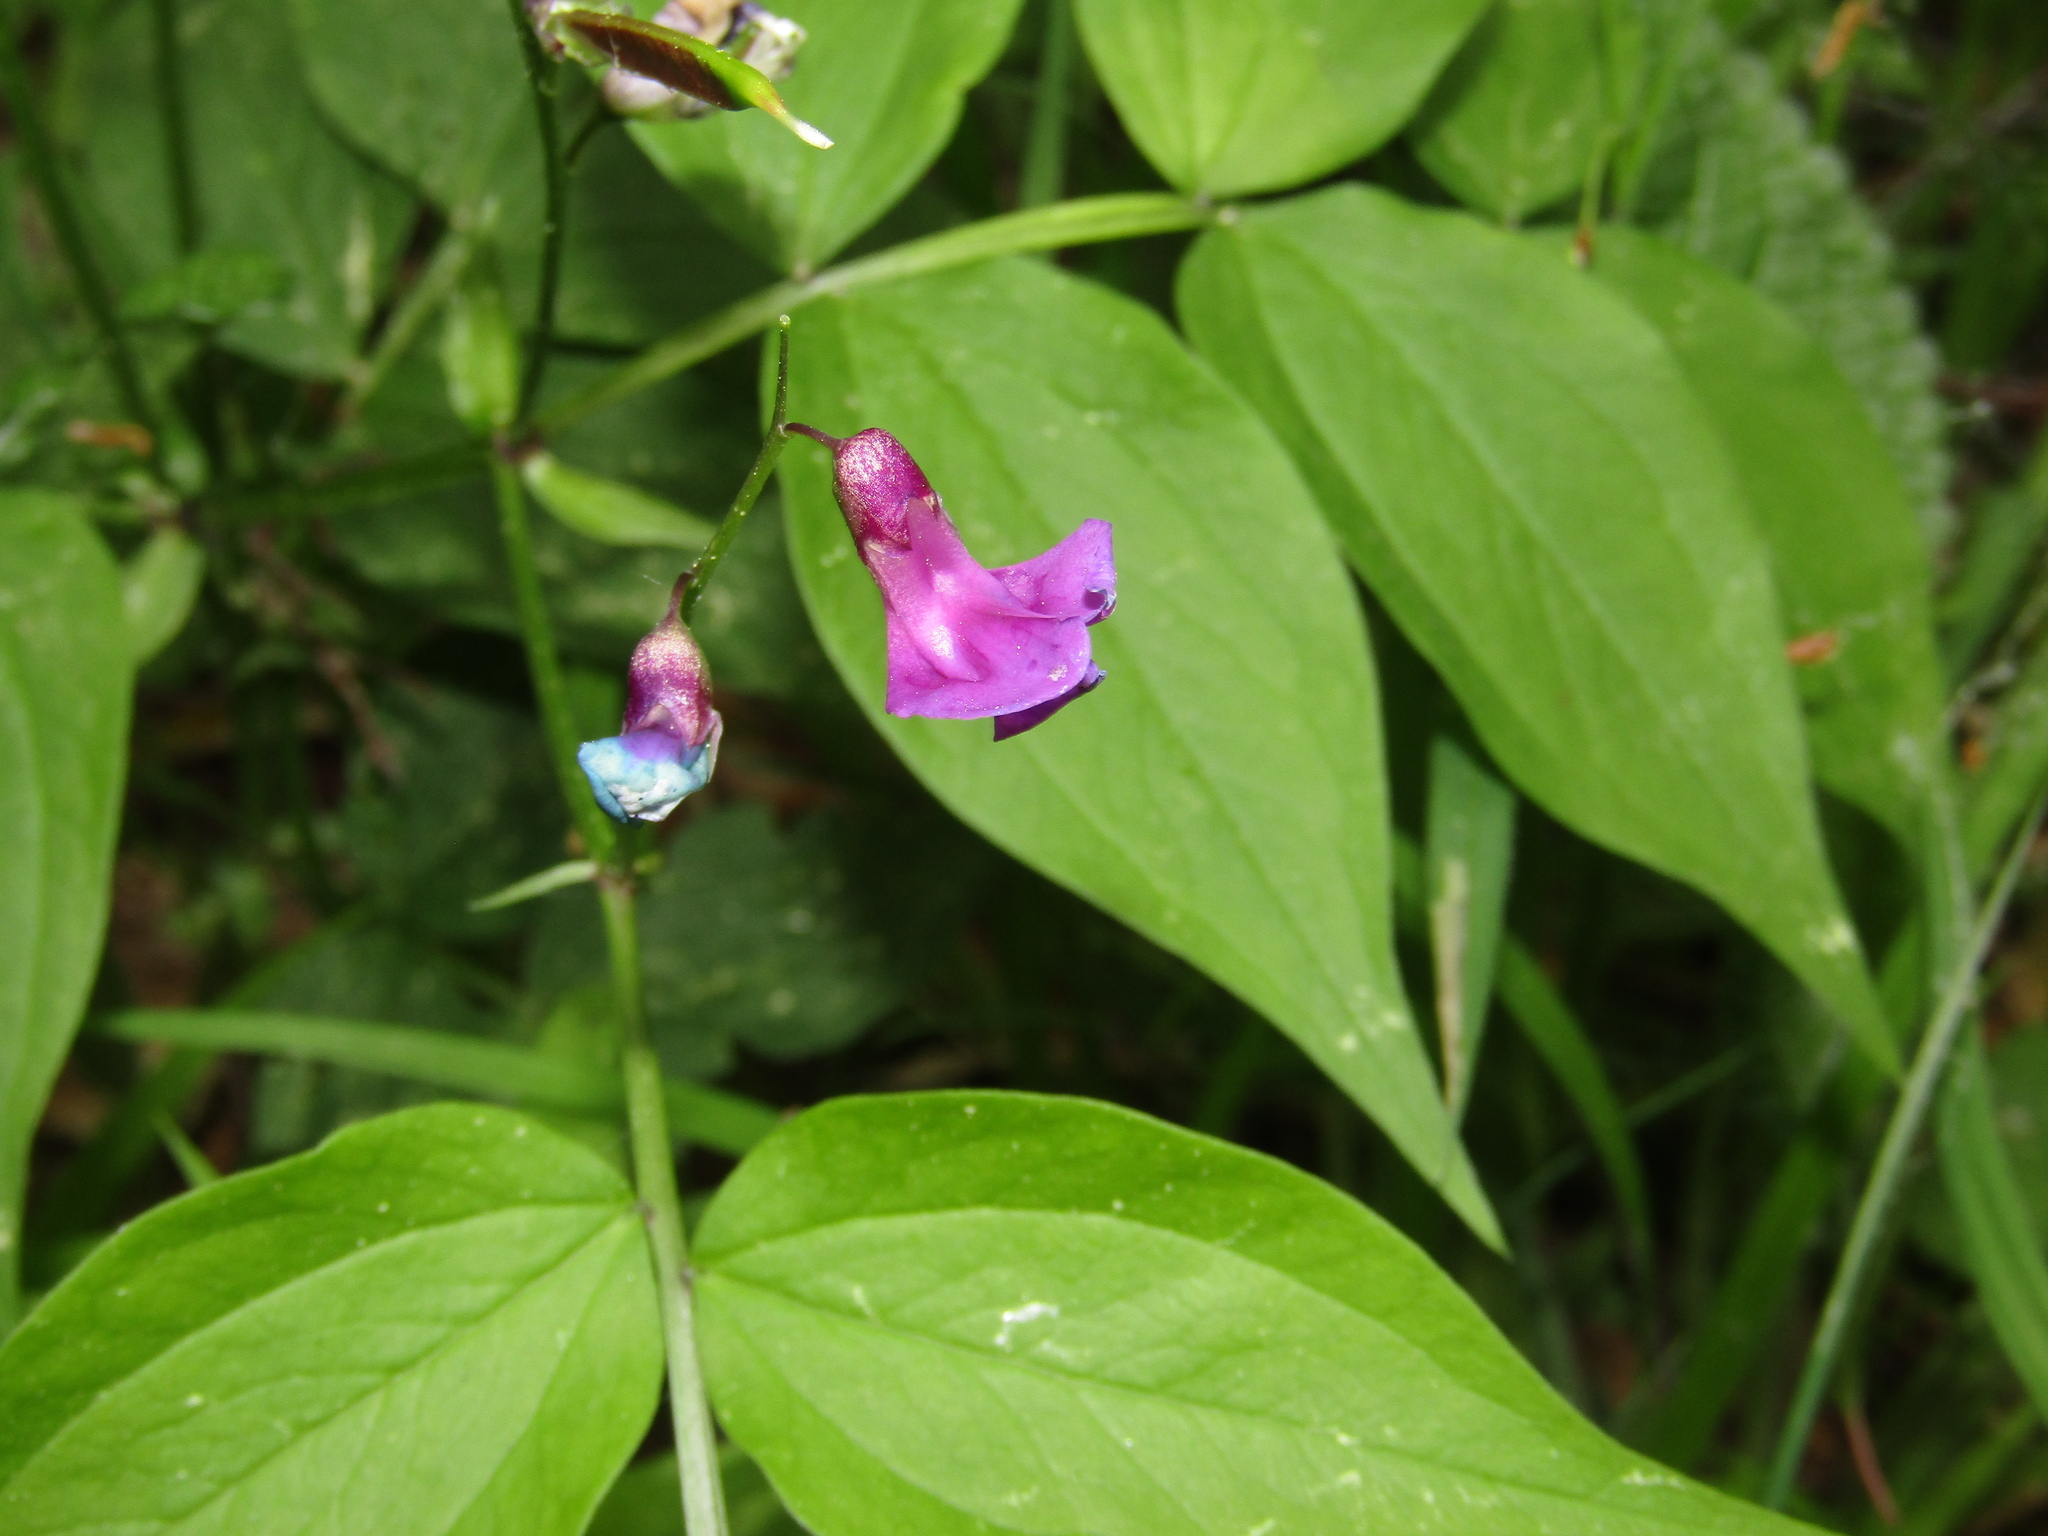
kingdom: Plantae
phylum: Tracheophyta
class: Magnoliopsida
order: Fabales
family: Fabaceae
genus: Lathyrus
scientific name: Lathyrus vernus
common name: Spring pea
